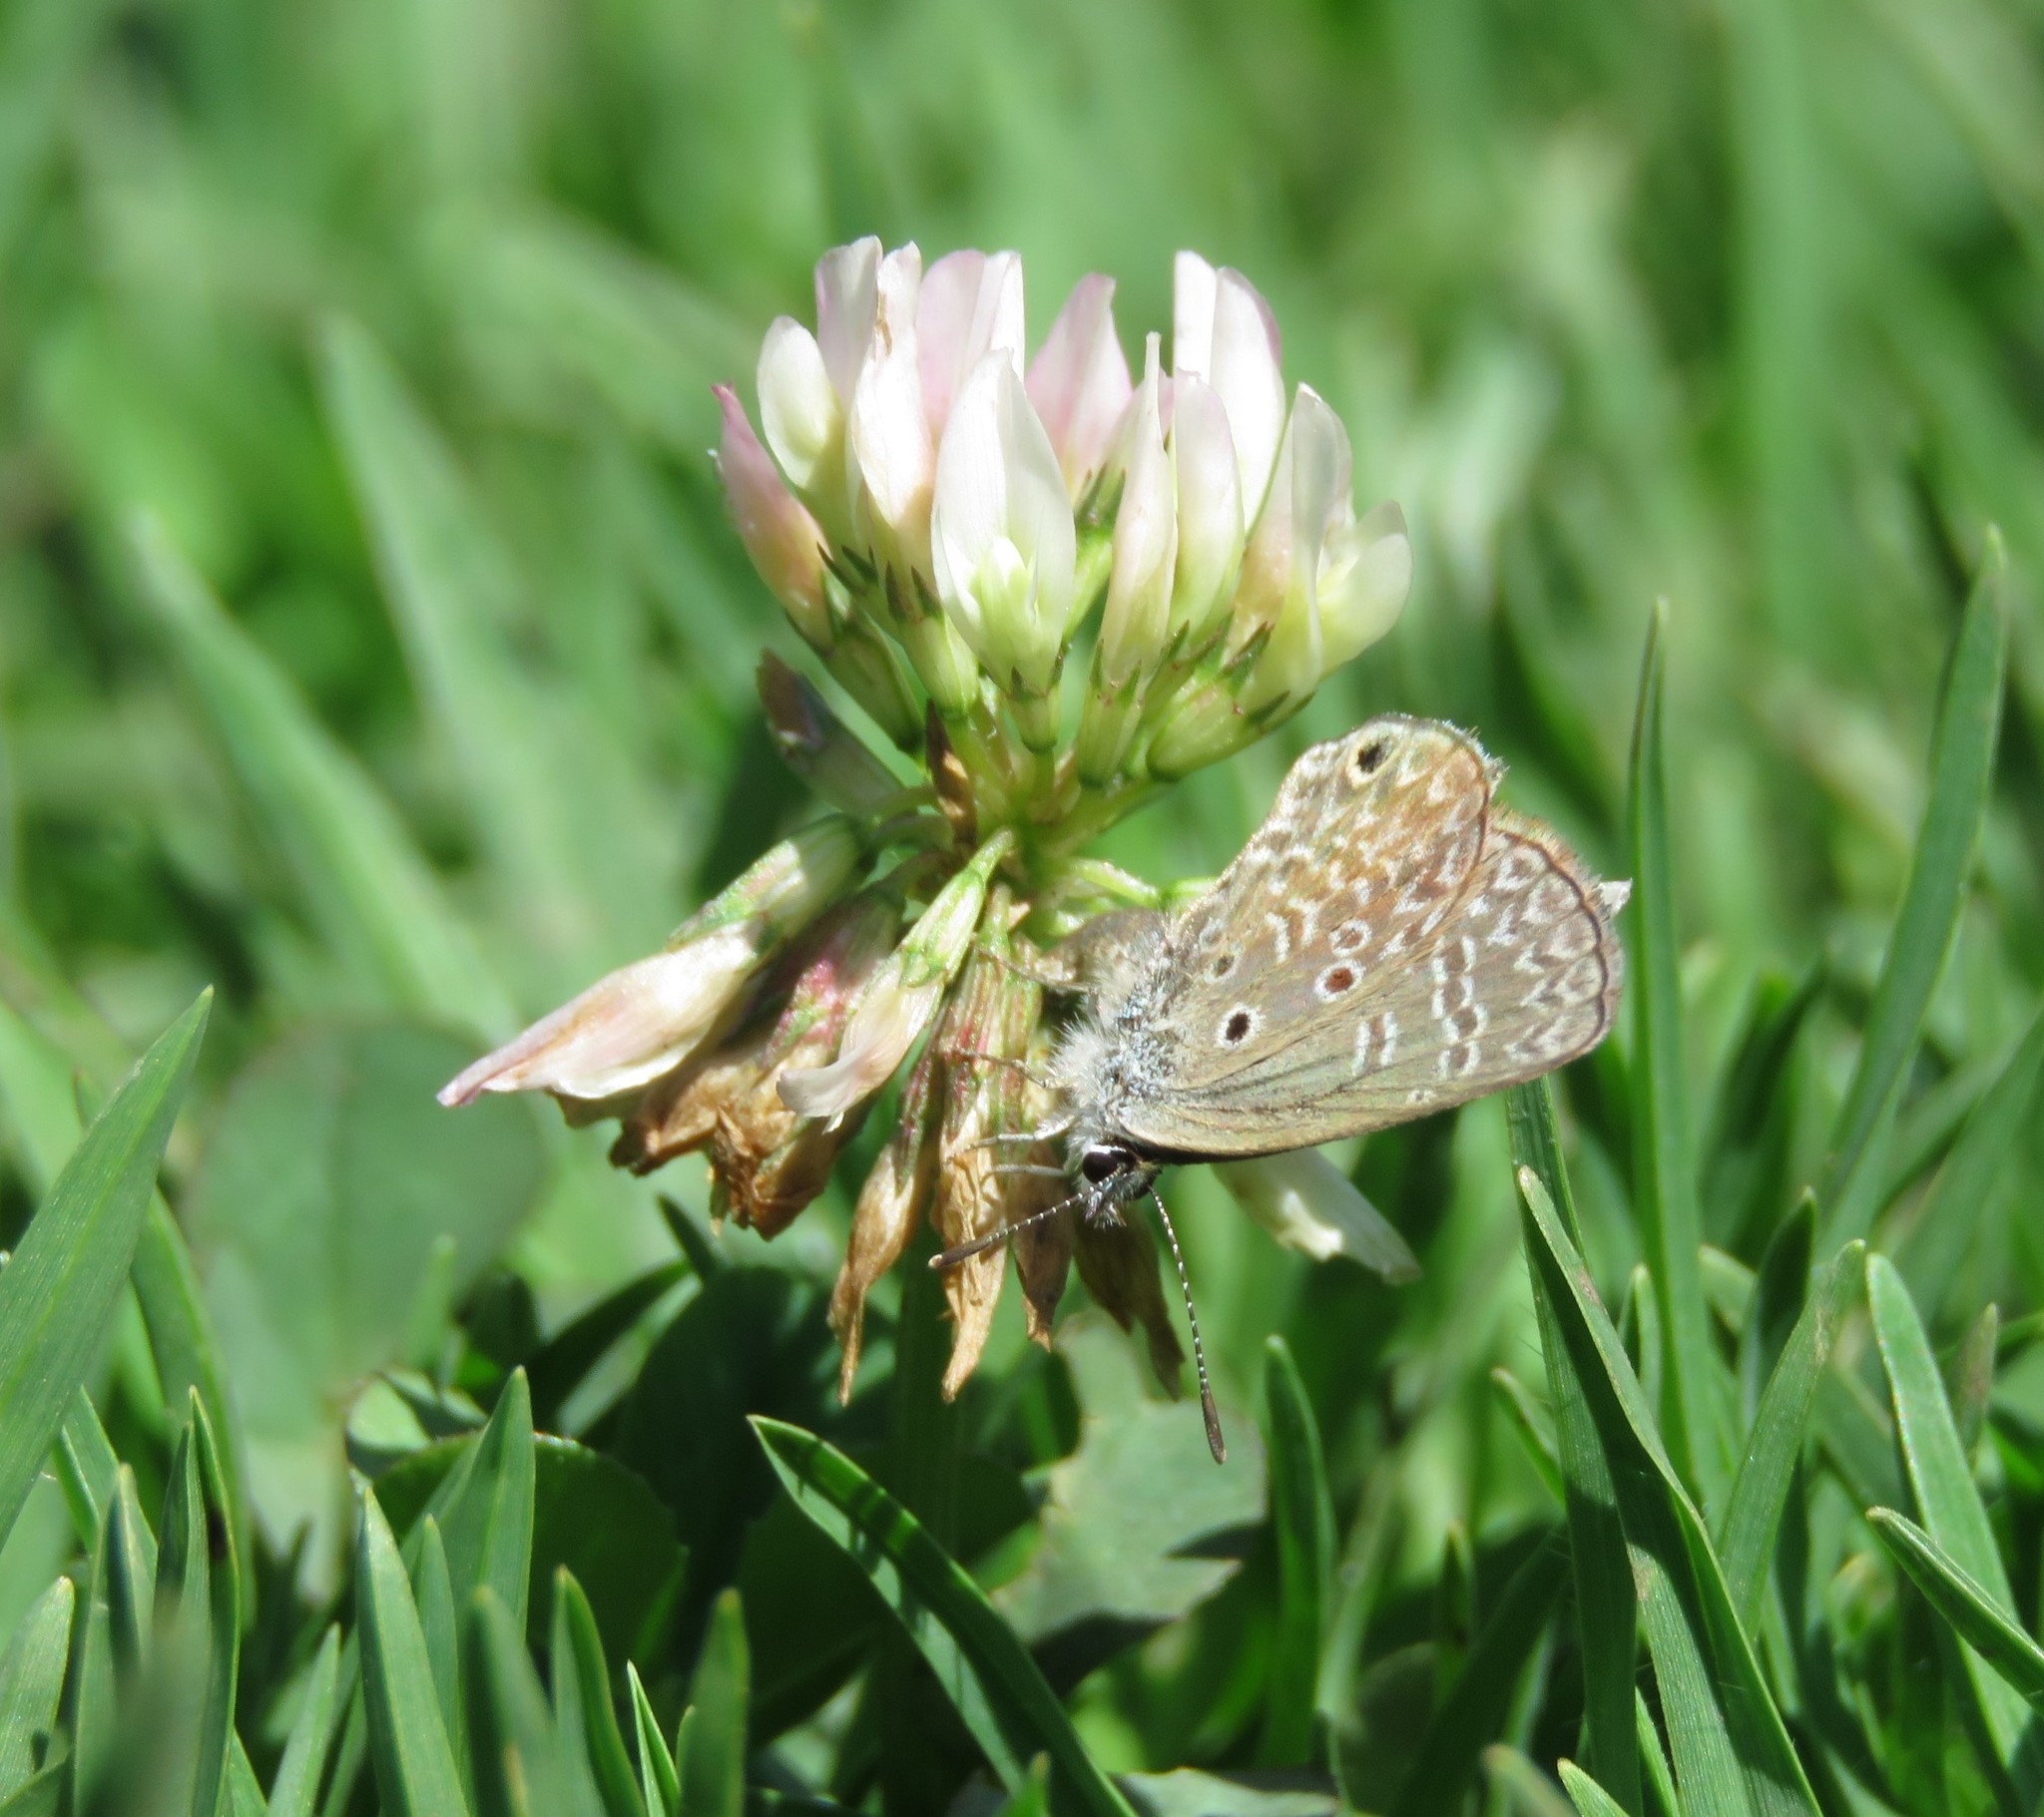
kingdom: Animalia
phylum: Arthropoda
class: Insecta
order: Lepidoptera
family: Lycaenidae
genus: Hemiargus
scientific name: Hemiargus hanno
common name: Common blue
